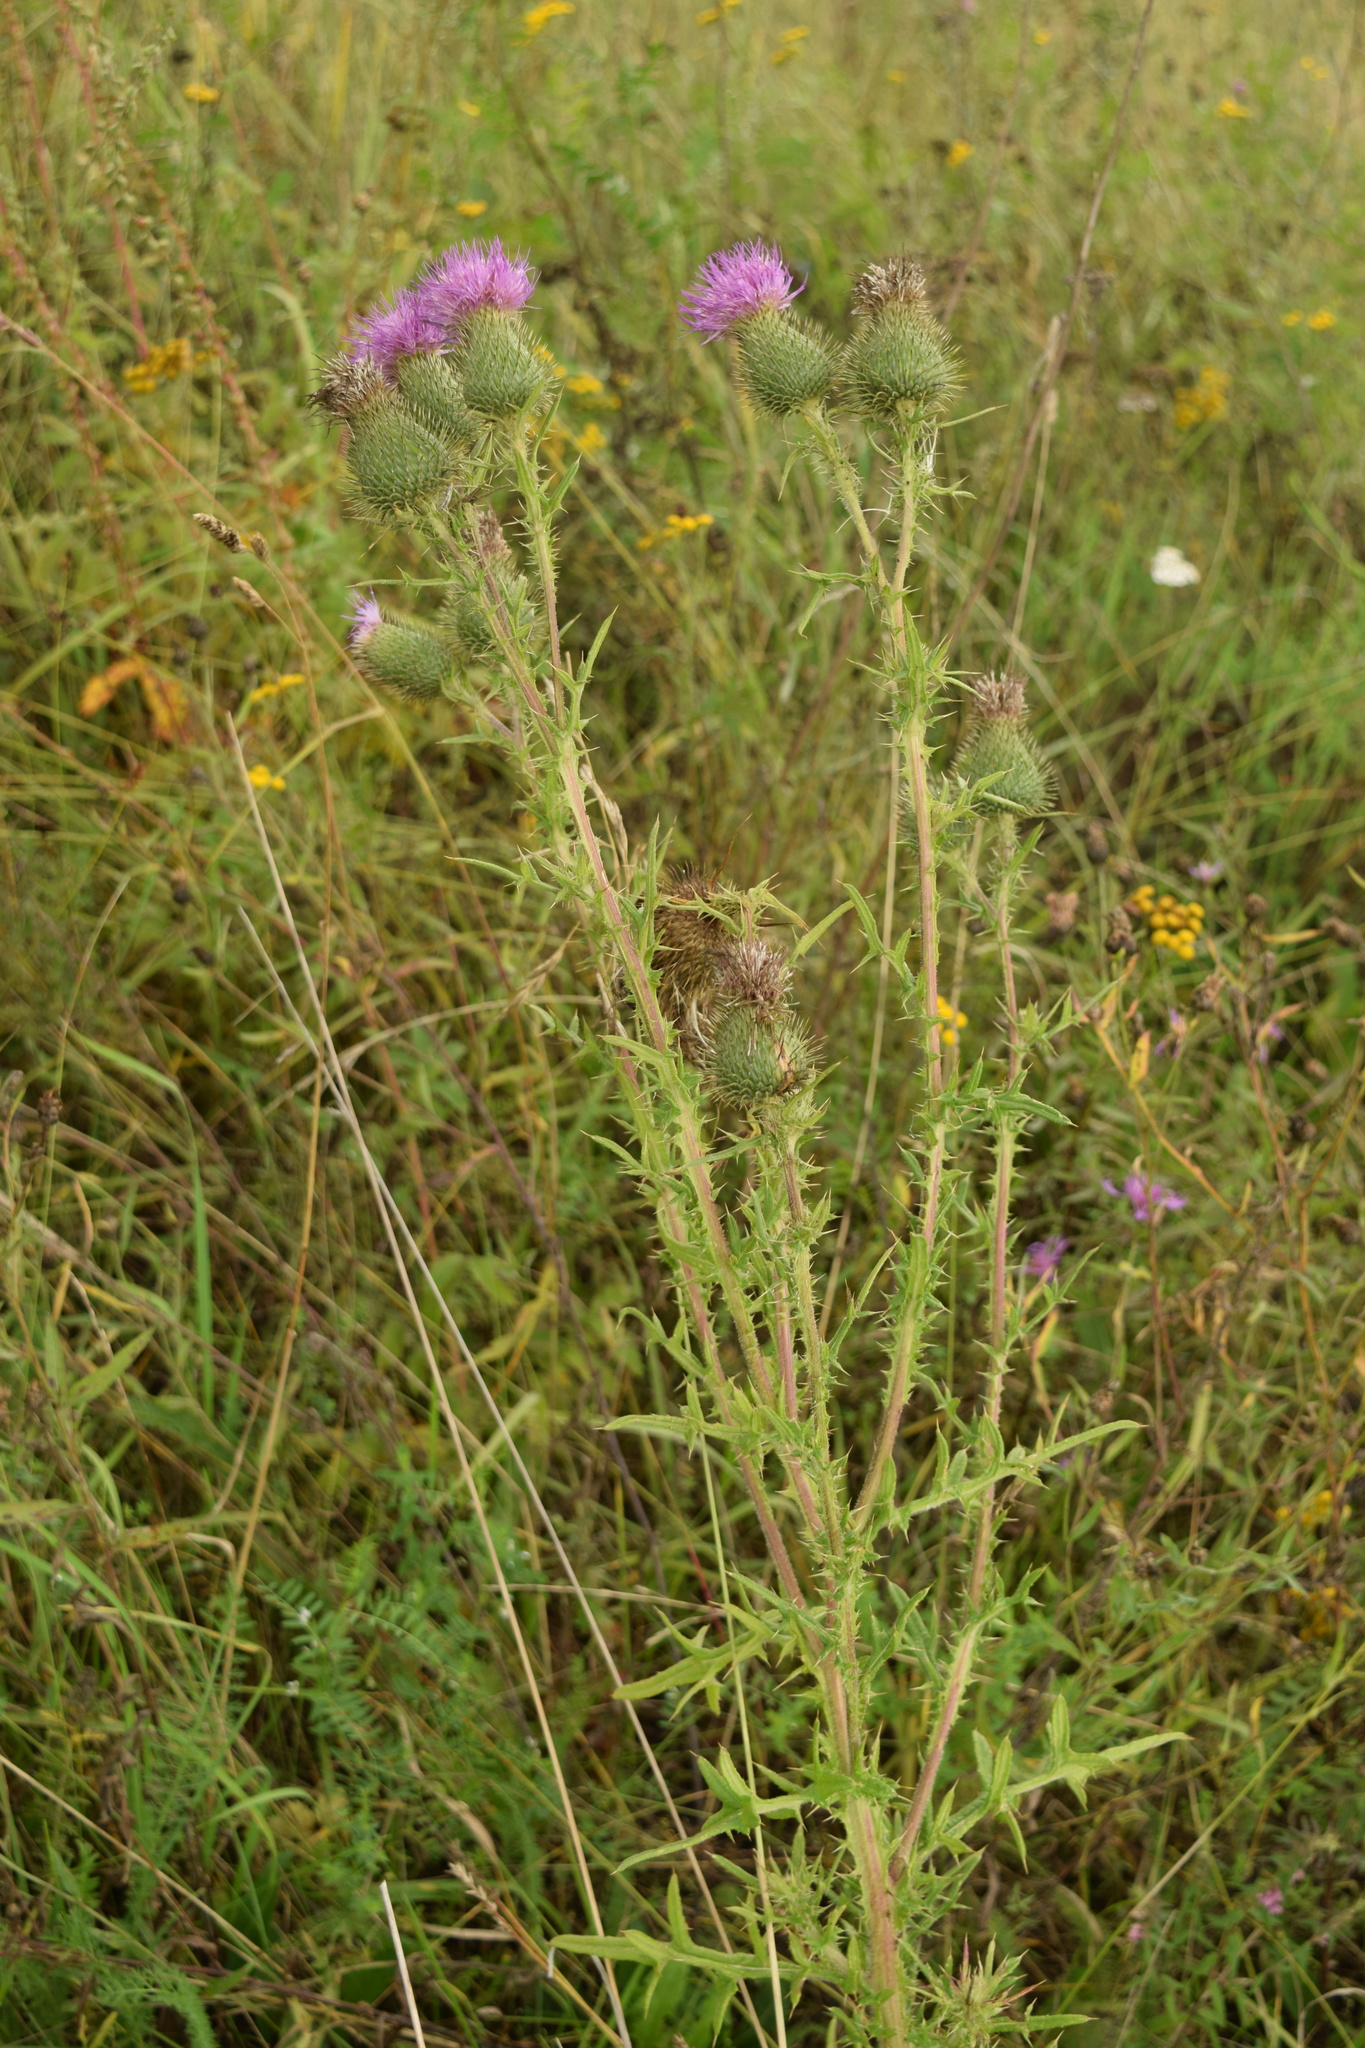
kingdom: Plantae
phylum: Tracheophyta
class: Magnoliopsida
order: Asterales
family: Asteraceae
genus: Cirsium
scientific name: Cirsium vulgare
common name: Bull thistle
